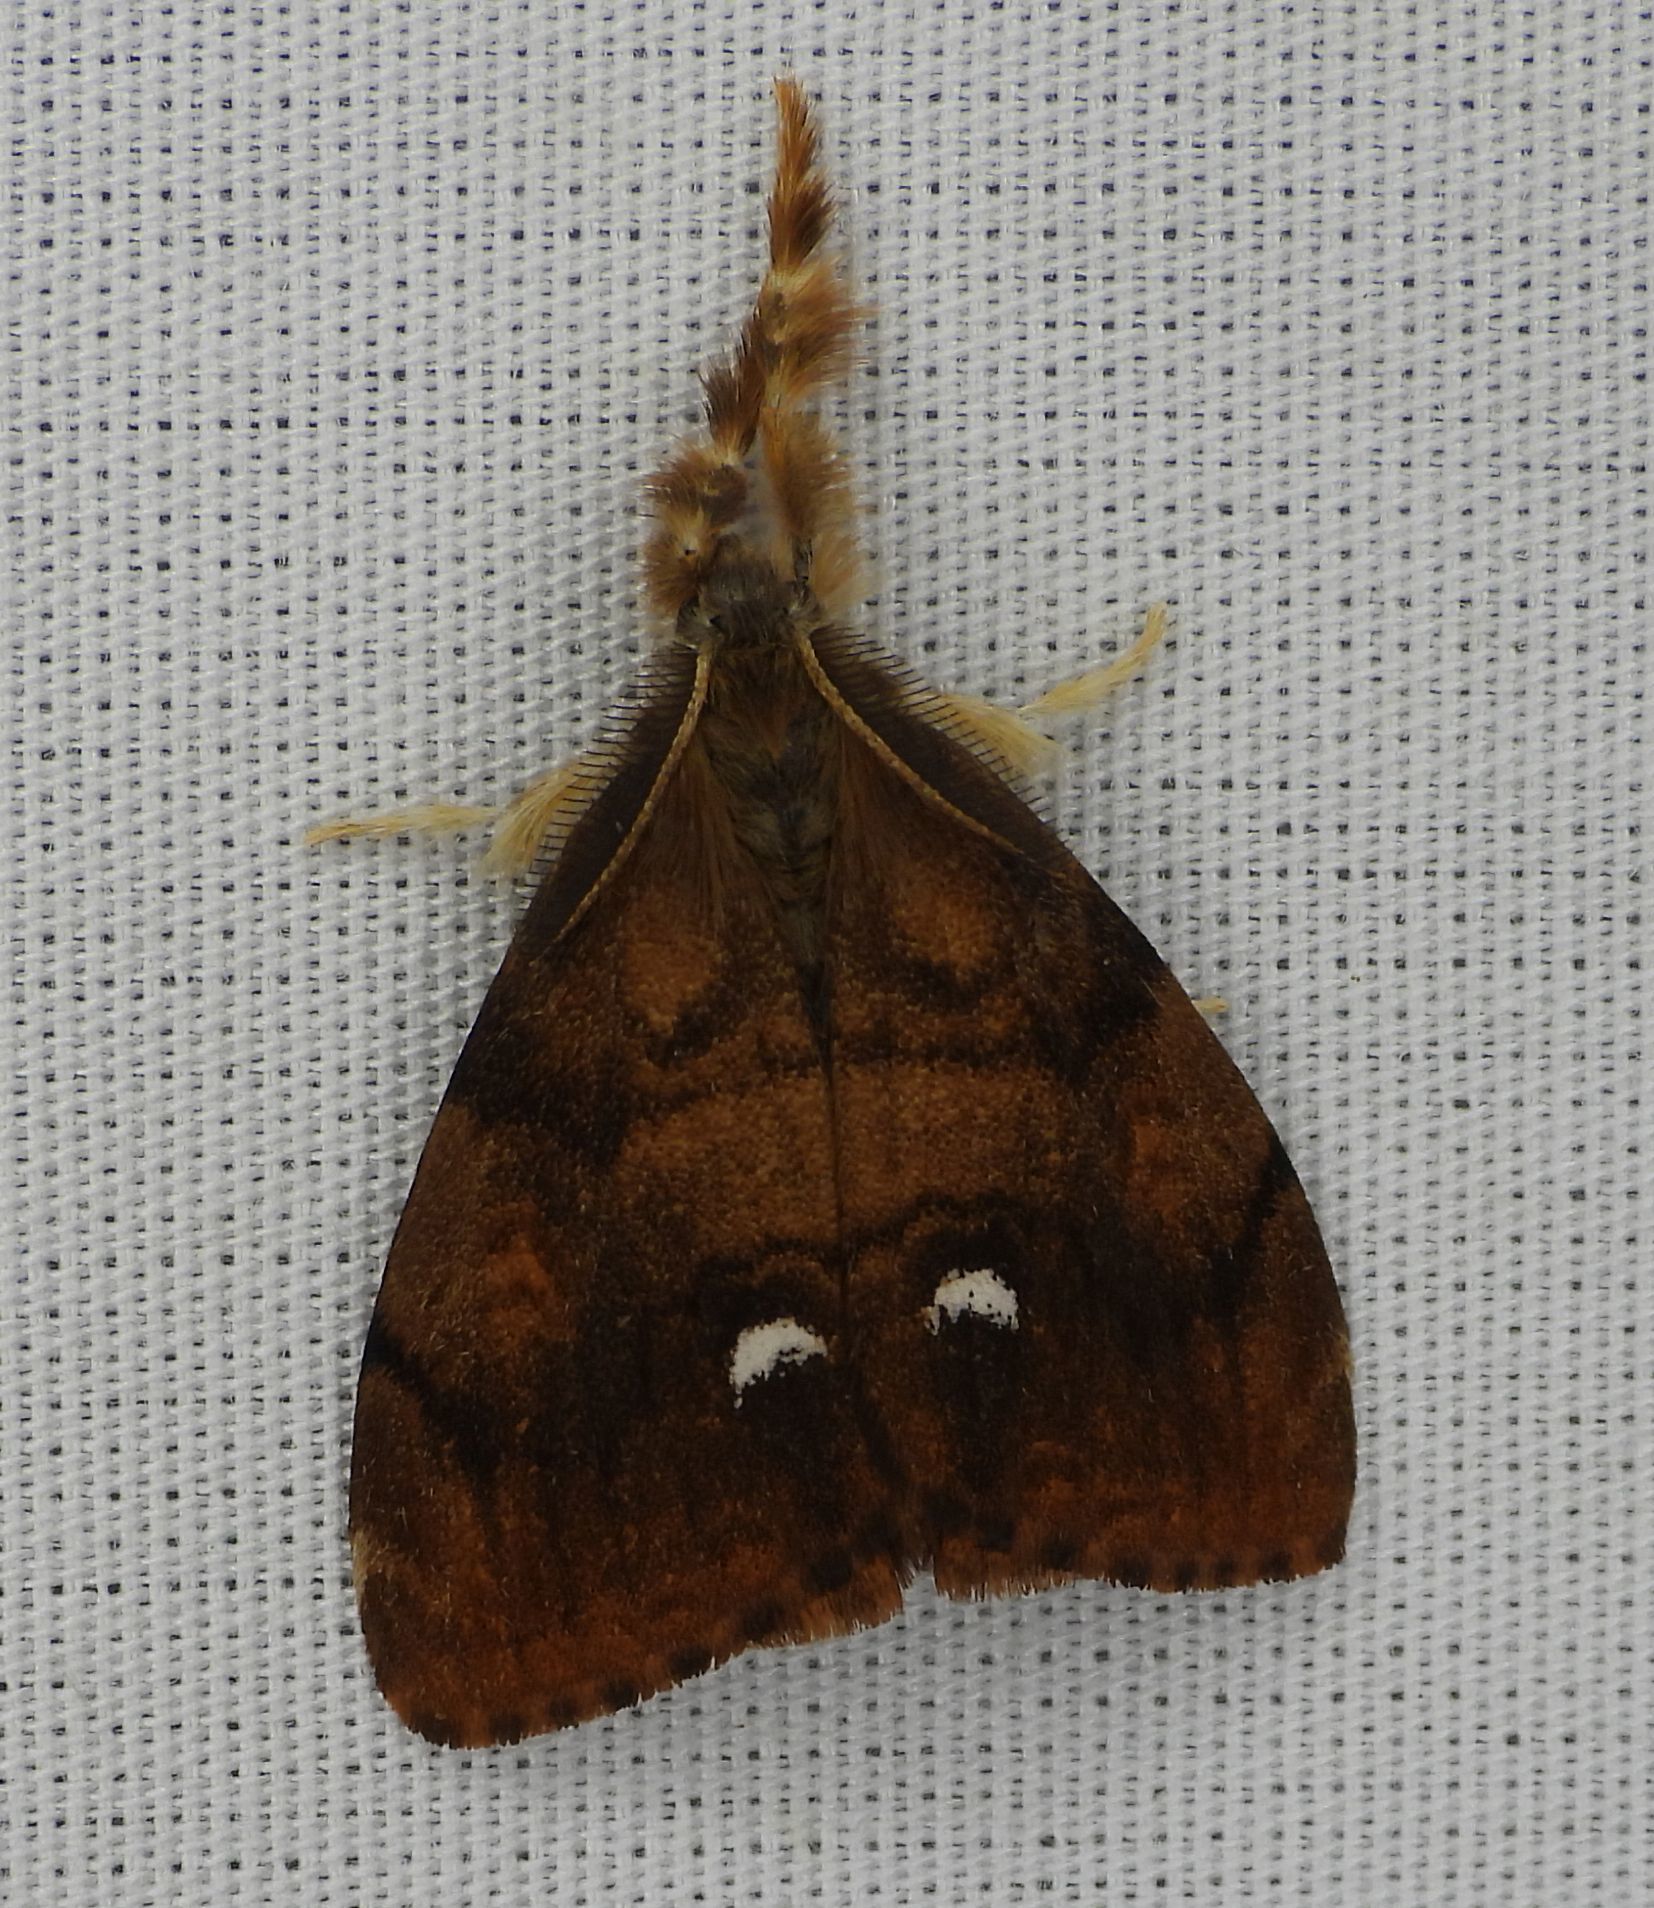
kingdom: Animalia
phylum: Arthropoda
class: Insecta
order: Lepidoptera
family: Erebidae
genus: Orgyia
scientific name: Orgyia antiqua
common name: Vapourer
